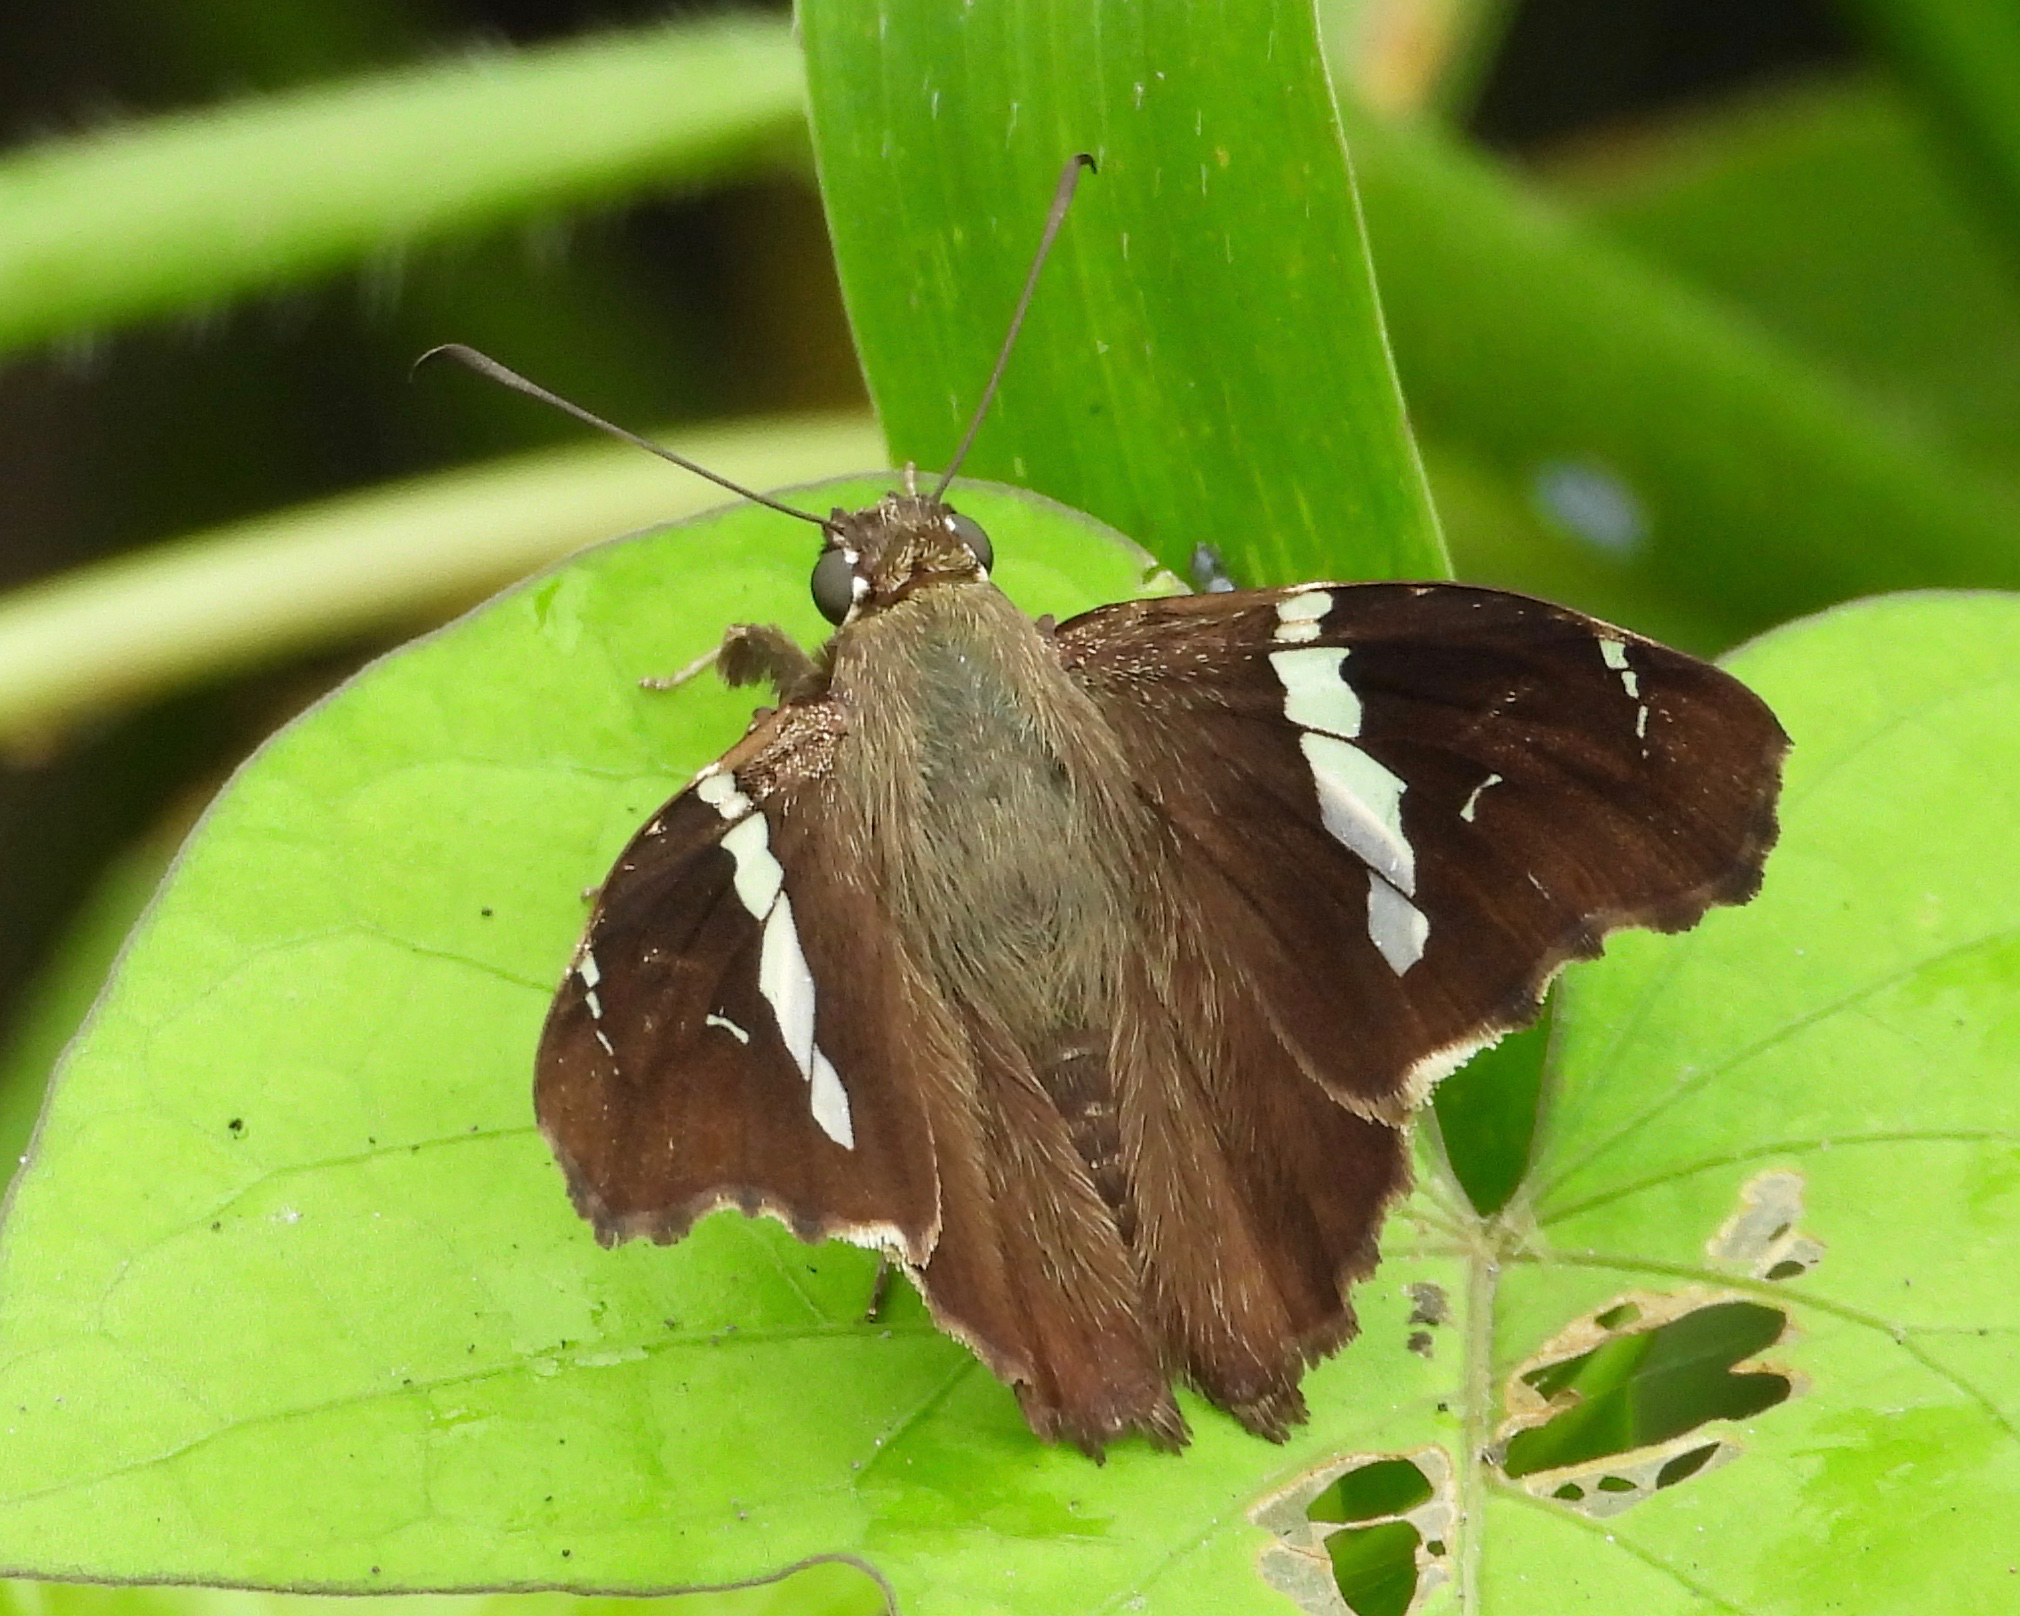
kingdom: Animalia
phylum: Arthropoda
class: Insecta
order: Lepidoptera
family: Hesperiidae
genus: Spathilepia
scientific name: Spathilepia clonius
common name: Falcate skipper
